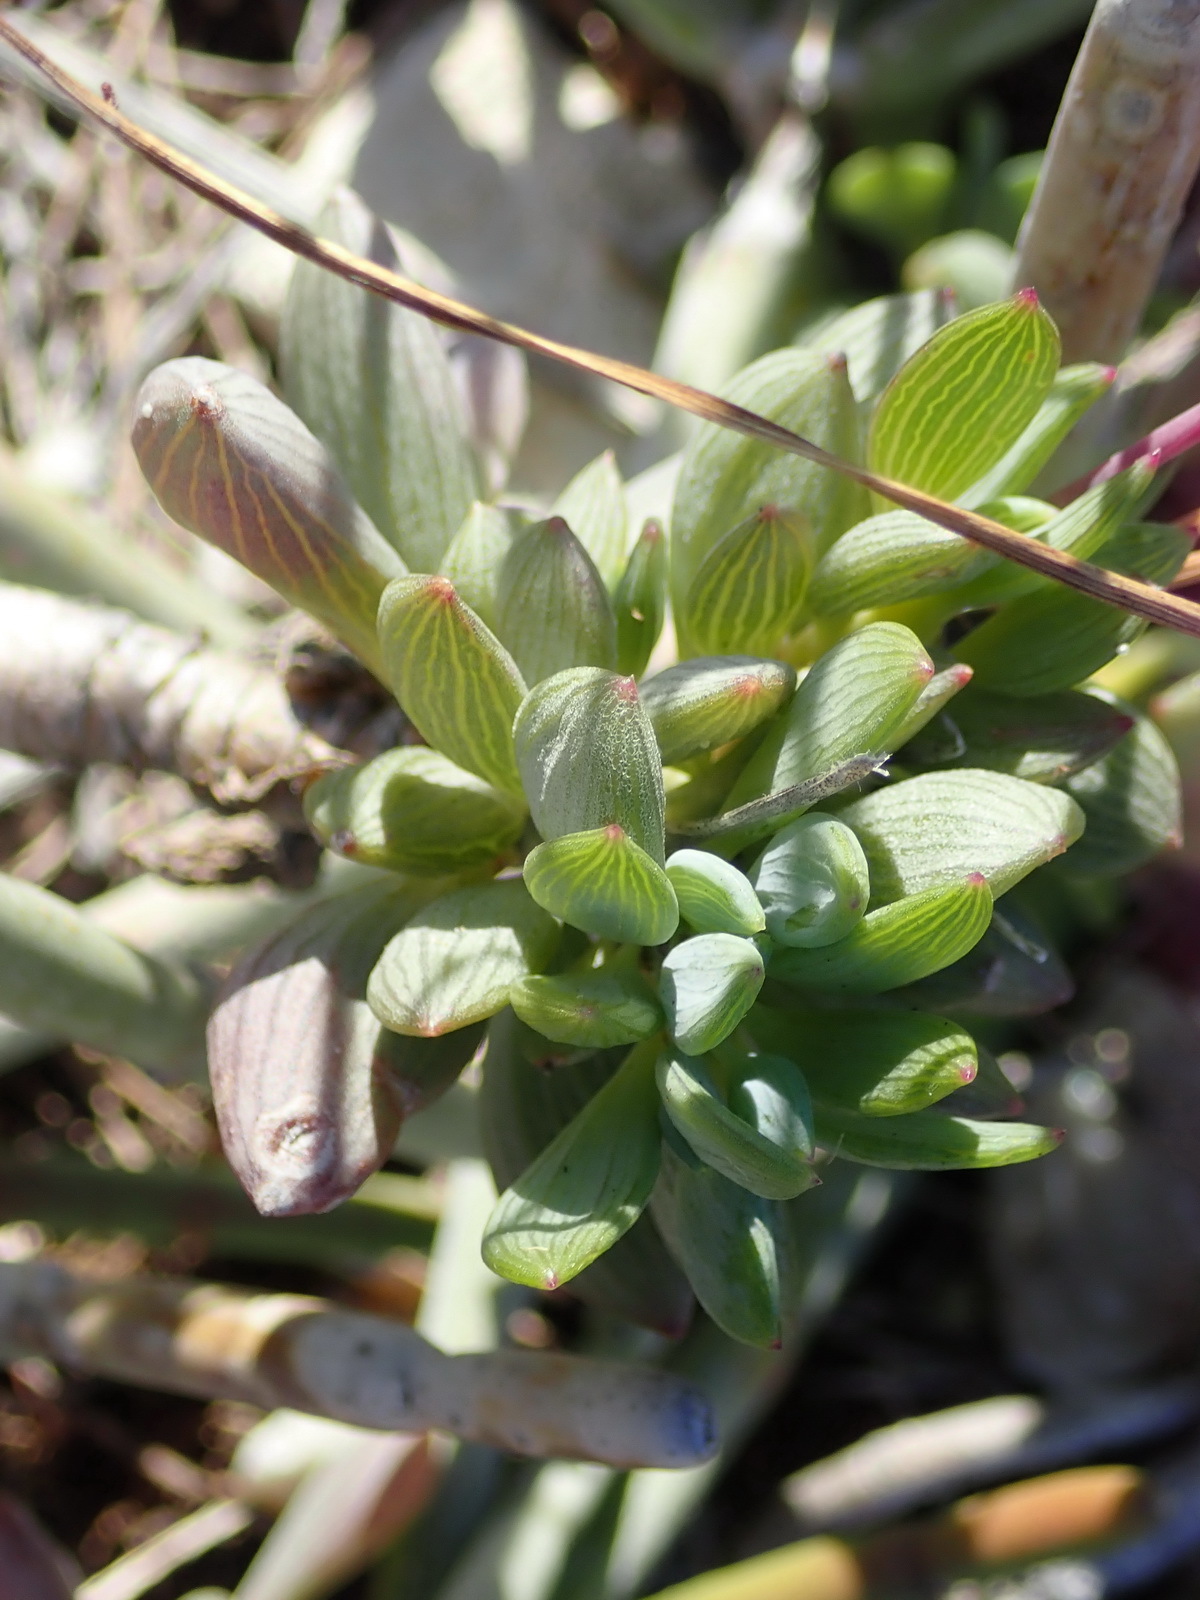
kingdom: Plantae
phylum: Tracheophyta
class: Magnoliopsida
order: Asterales
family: Asteraceae
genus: Curio
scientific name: Curio archeri
